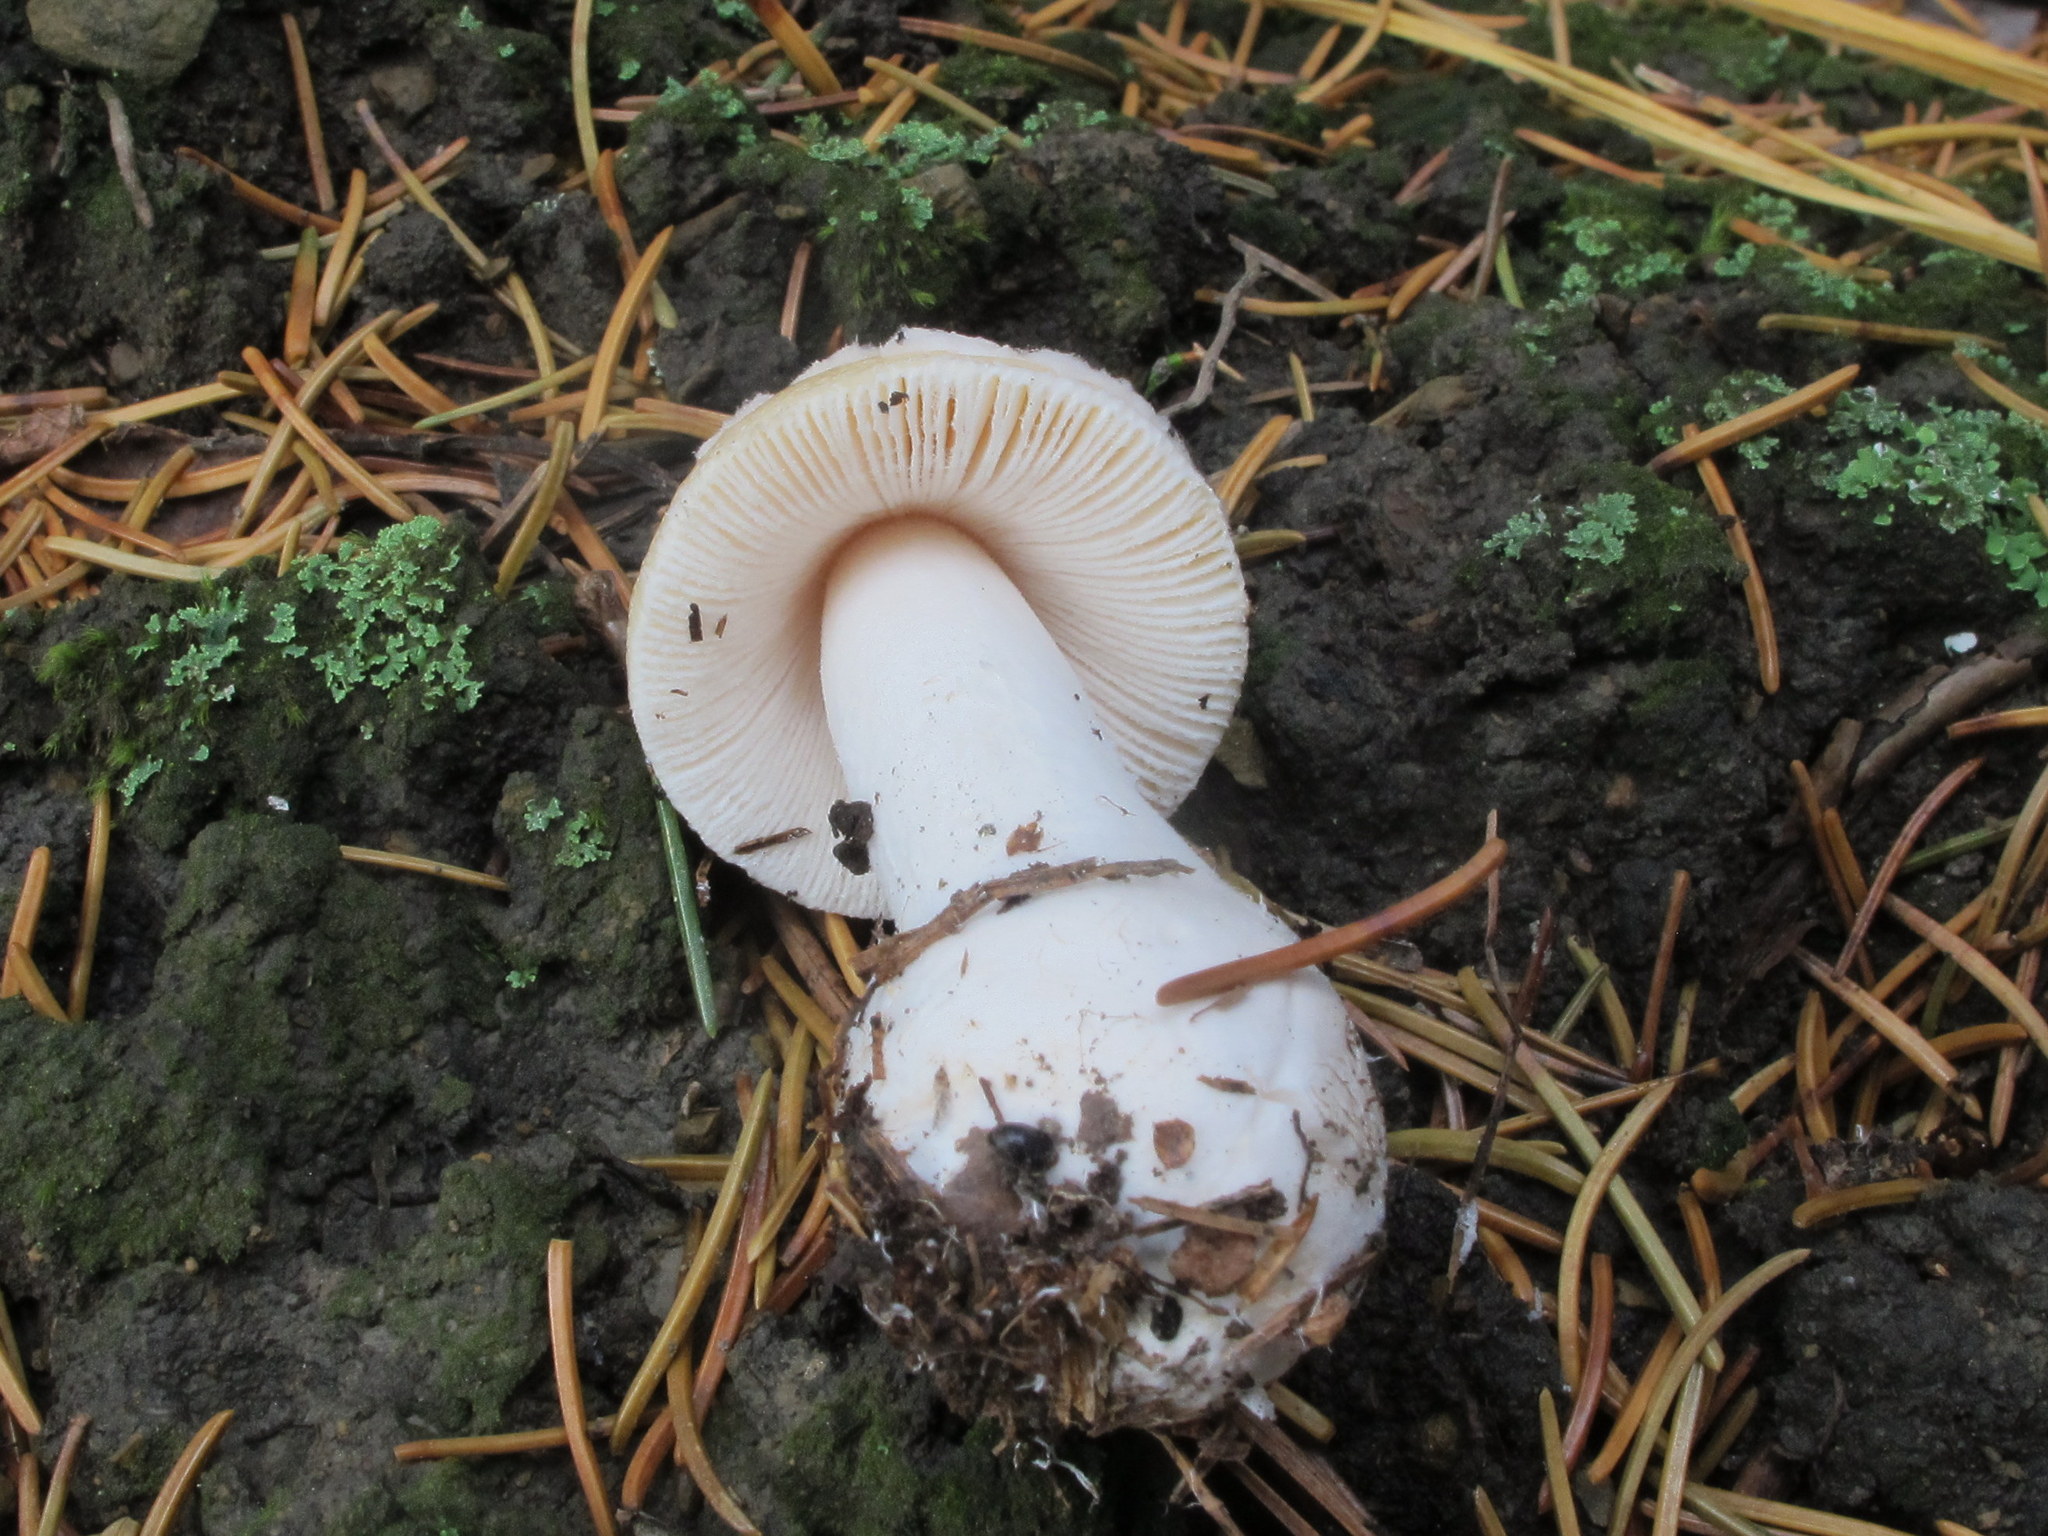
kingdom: Fungi
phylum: Basidiomycota
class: Agaricomycetes
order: Agaricales
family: Amanitaceae
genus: Amanita
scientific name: Amanita russuloides
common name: Russula-like amanita
